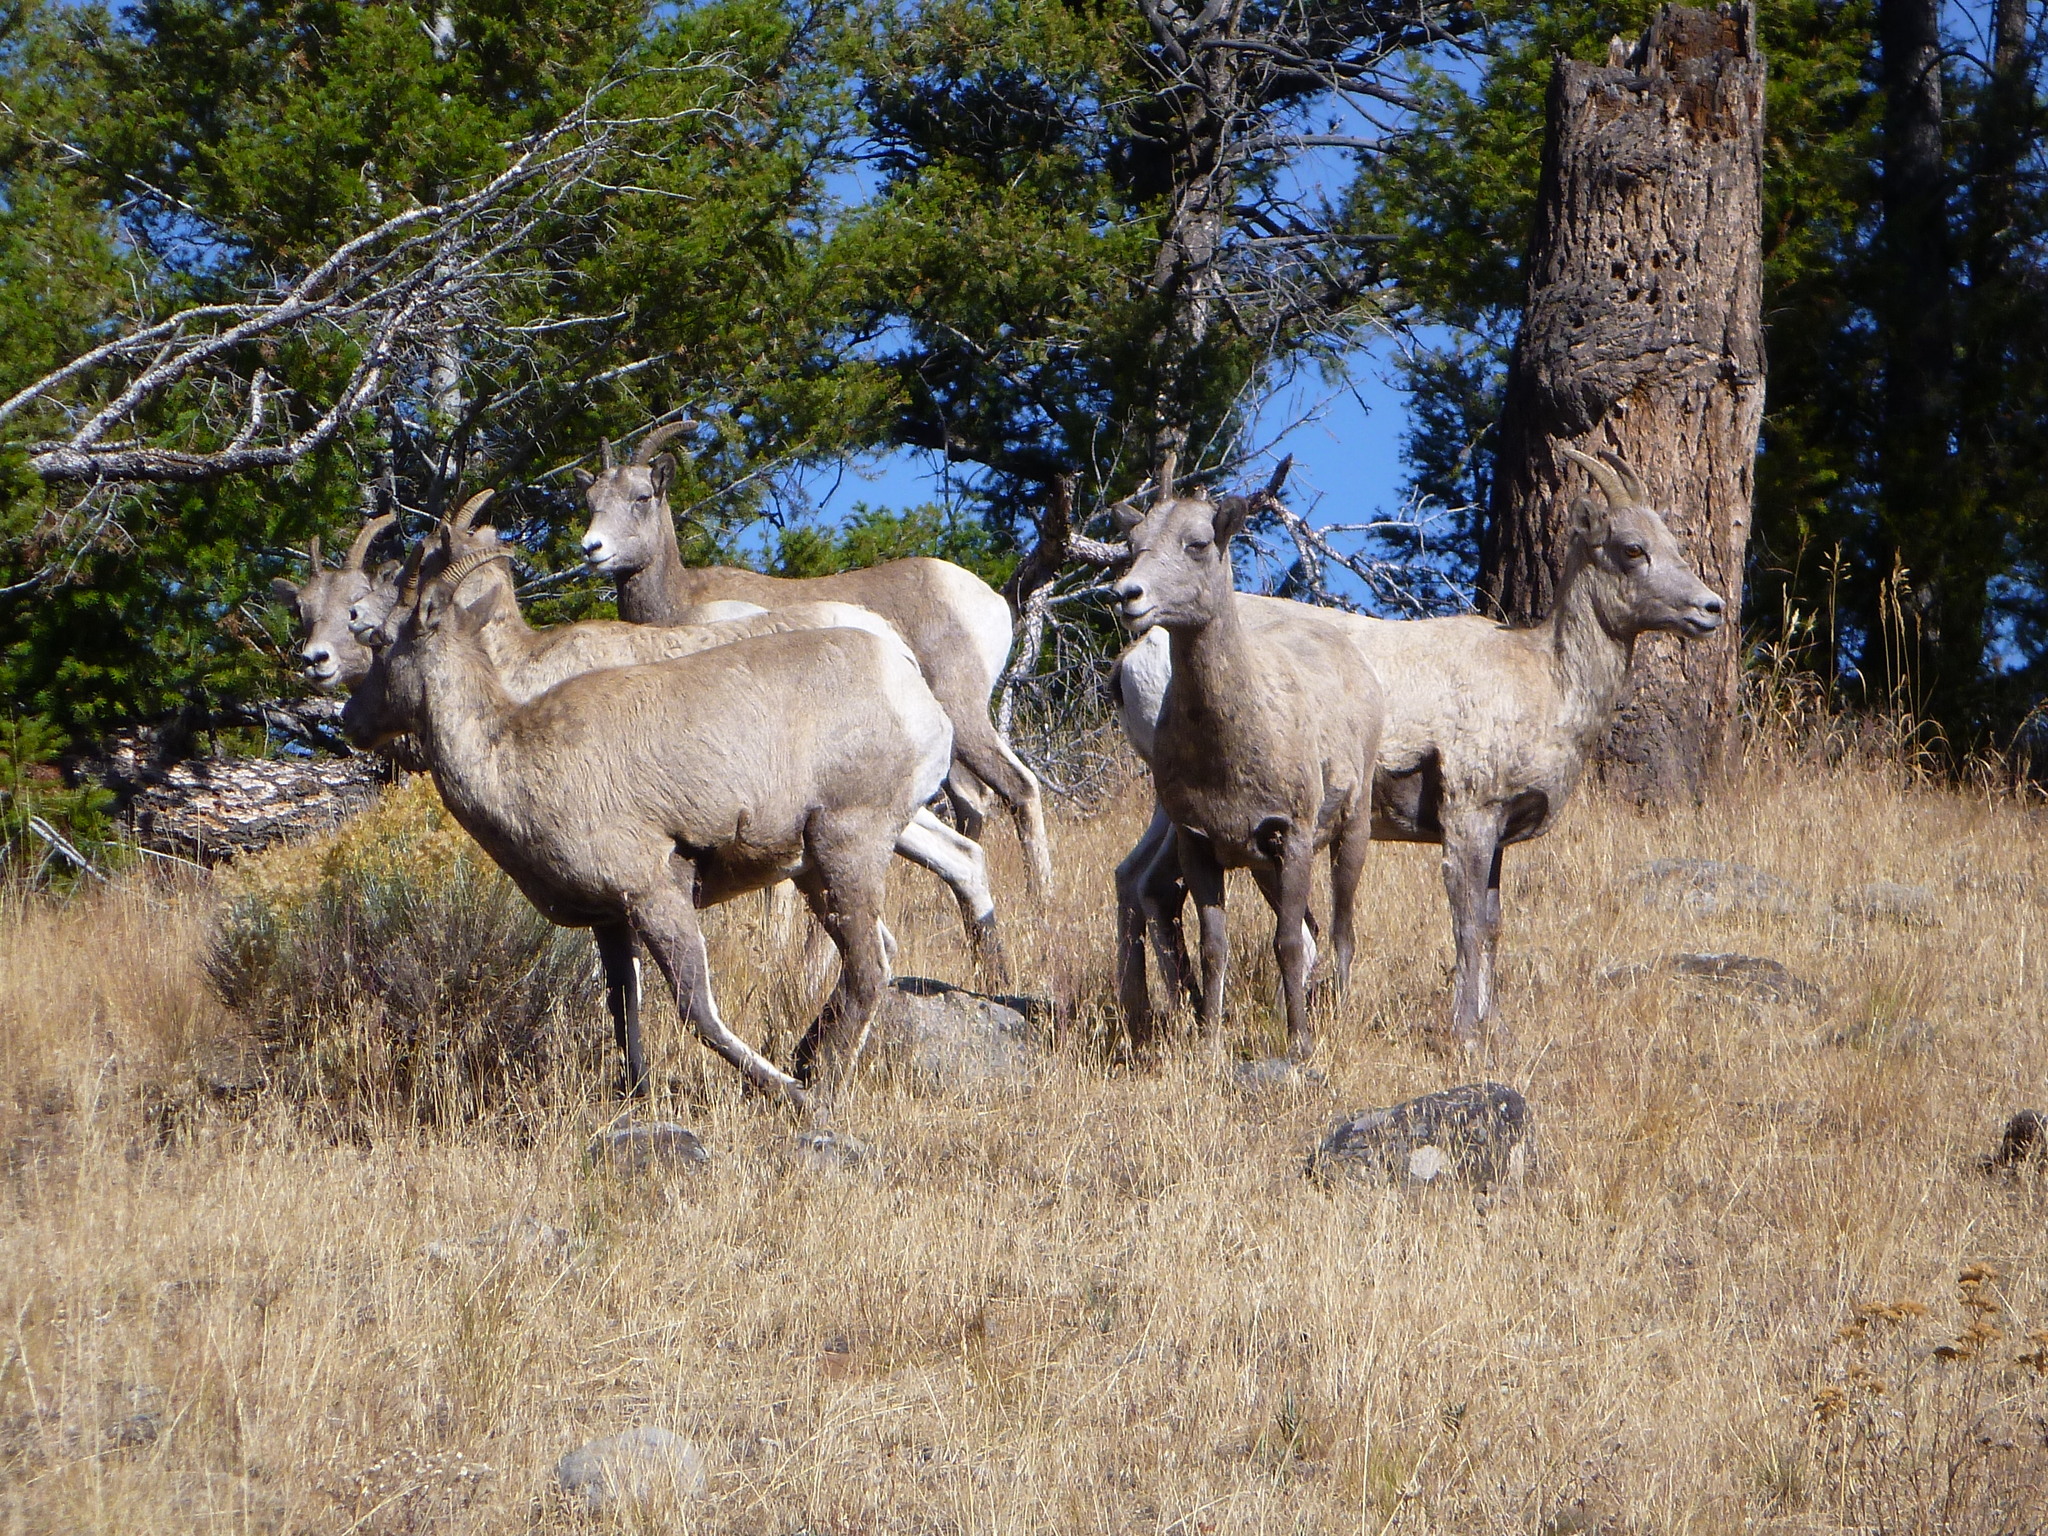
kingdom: Animalia
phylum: Chordata
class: Mammalia
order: Artiodactyla
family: Bovidae
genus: Ovis
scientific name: Ovis canadensis
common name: Bighorn sheep
